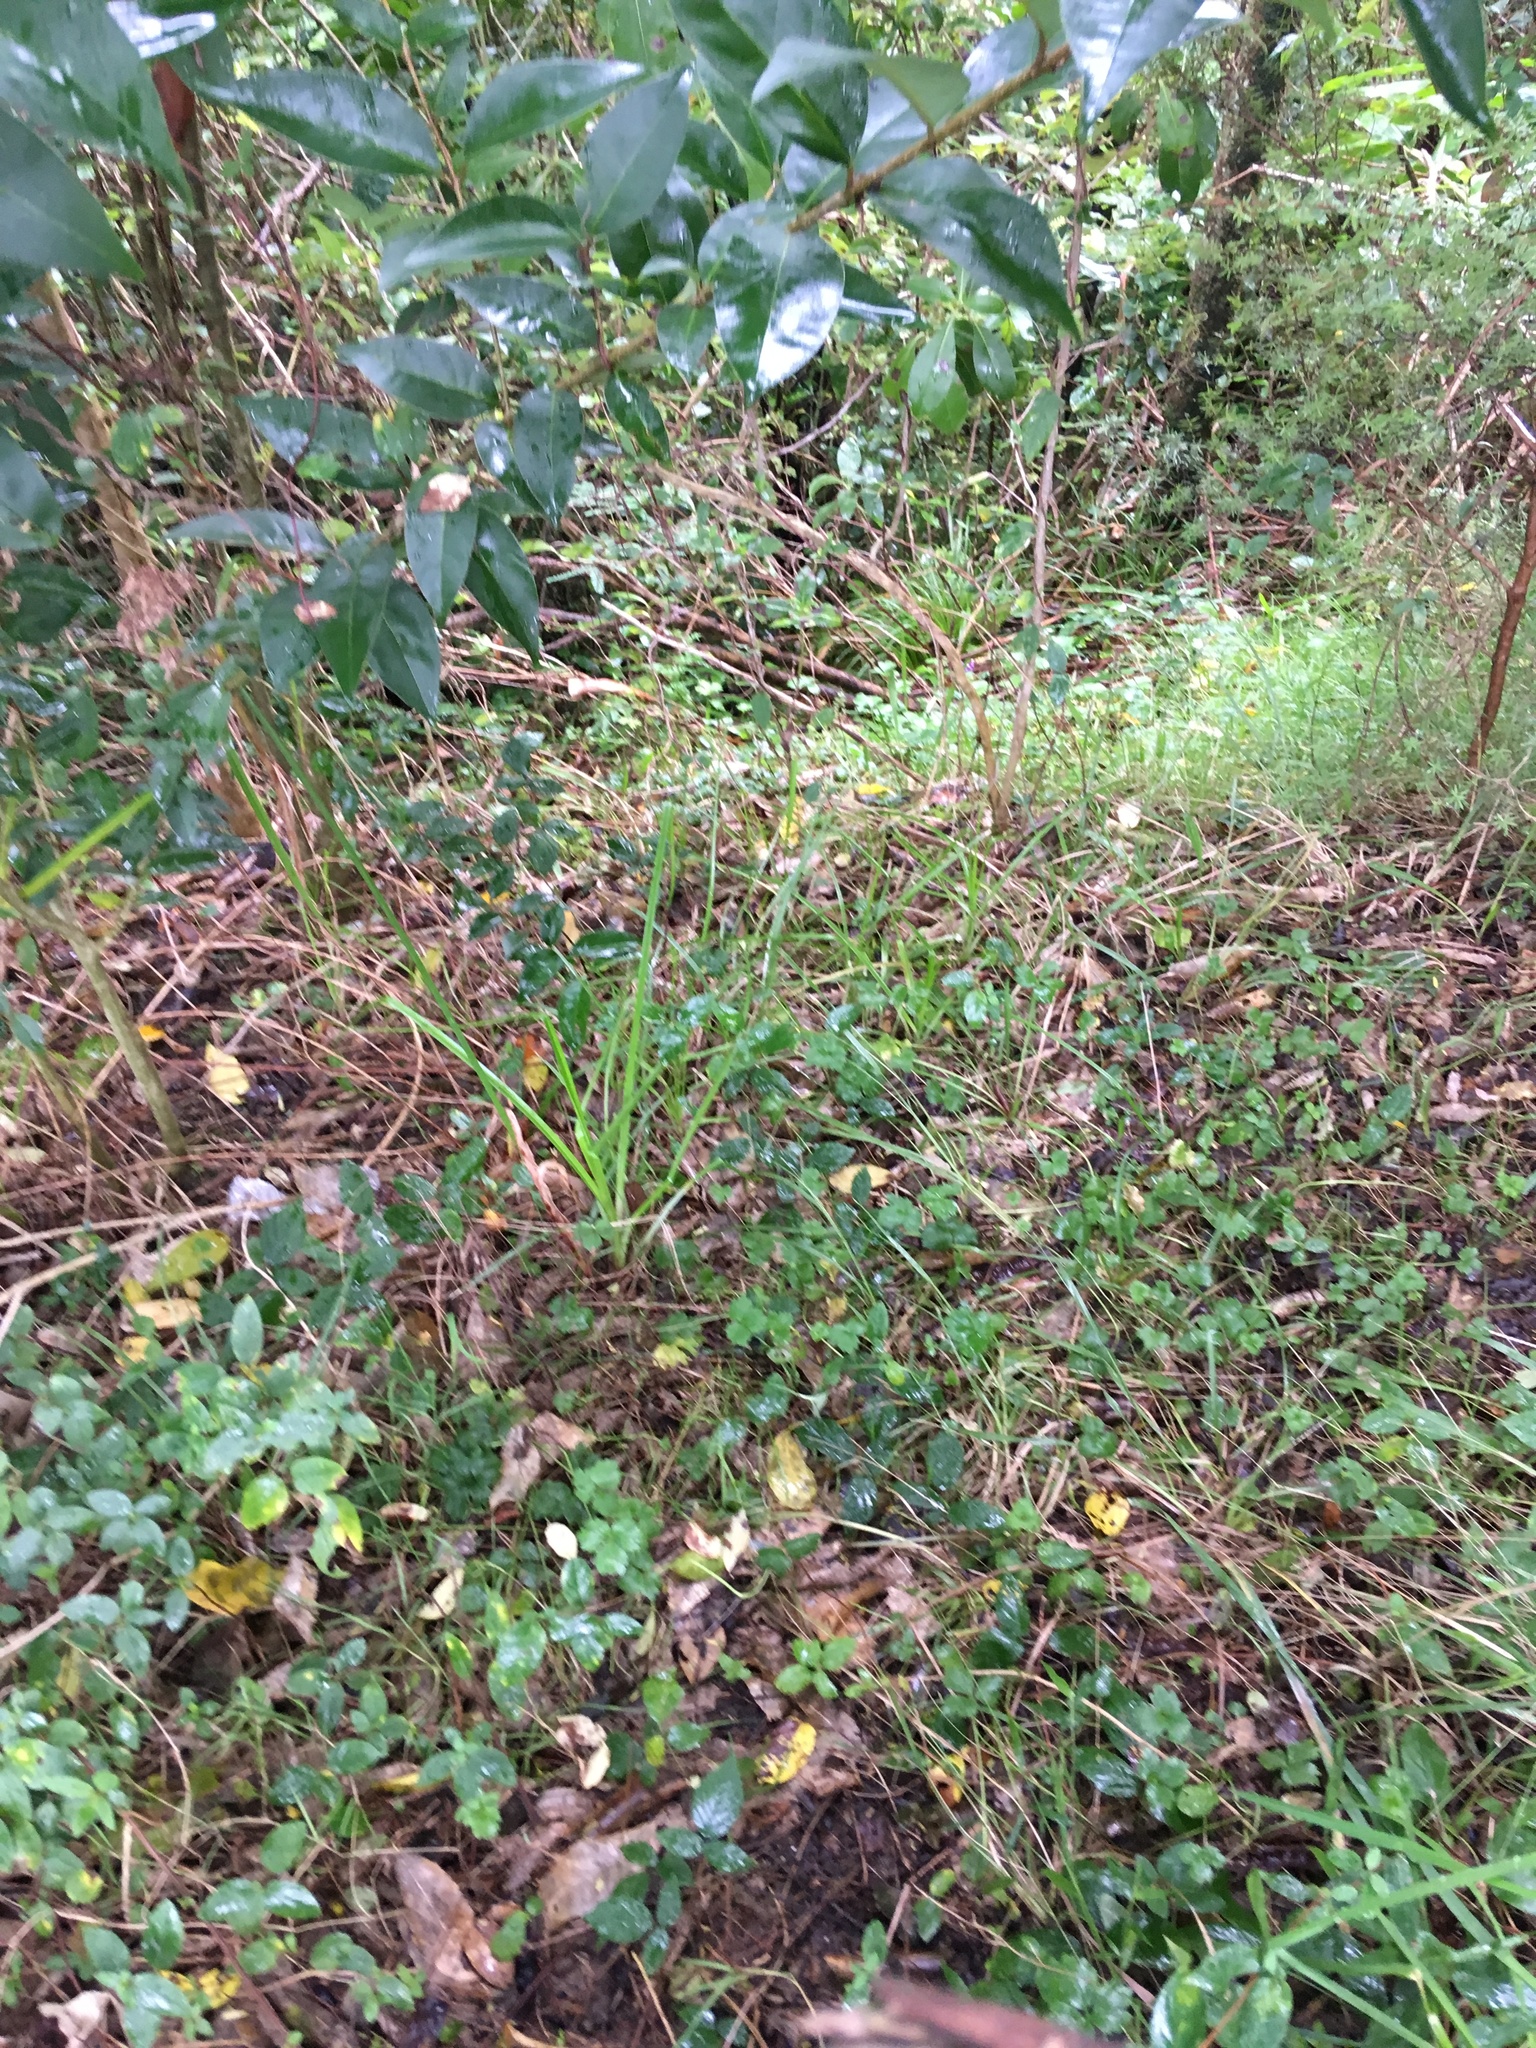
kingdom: Plantae
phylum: Tracheophyta
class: Magnoliopsida
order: Lamiales
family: Oleaceae
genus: Ligustrum
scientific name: Ligustrum lucidum
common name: Glossy privet
